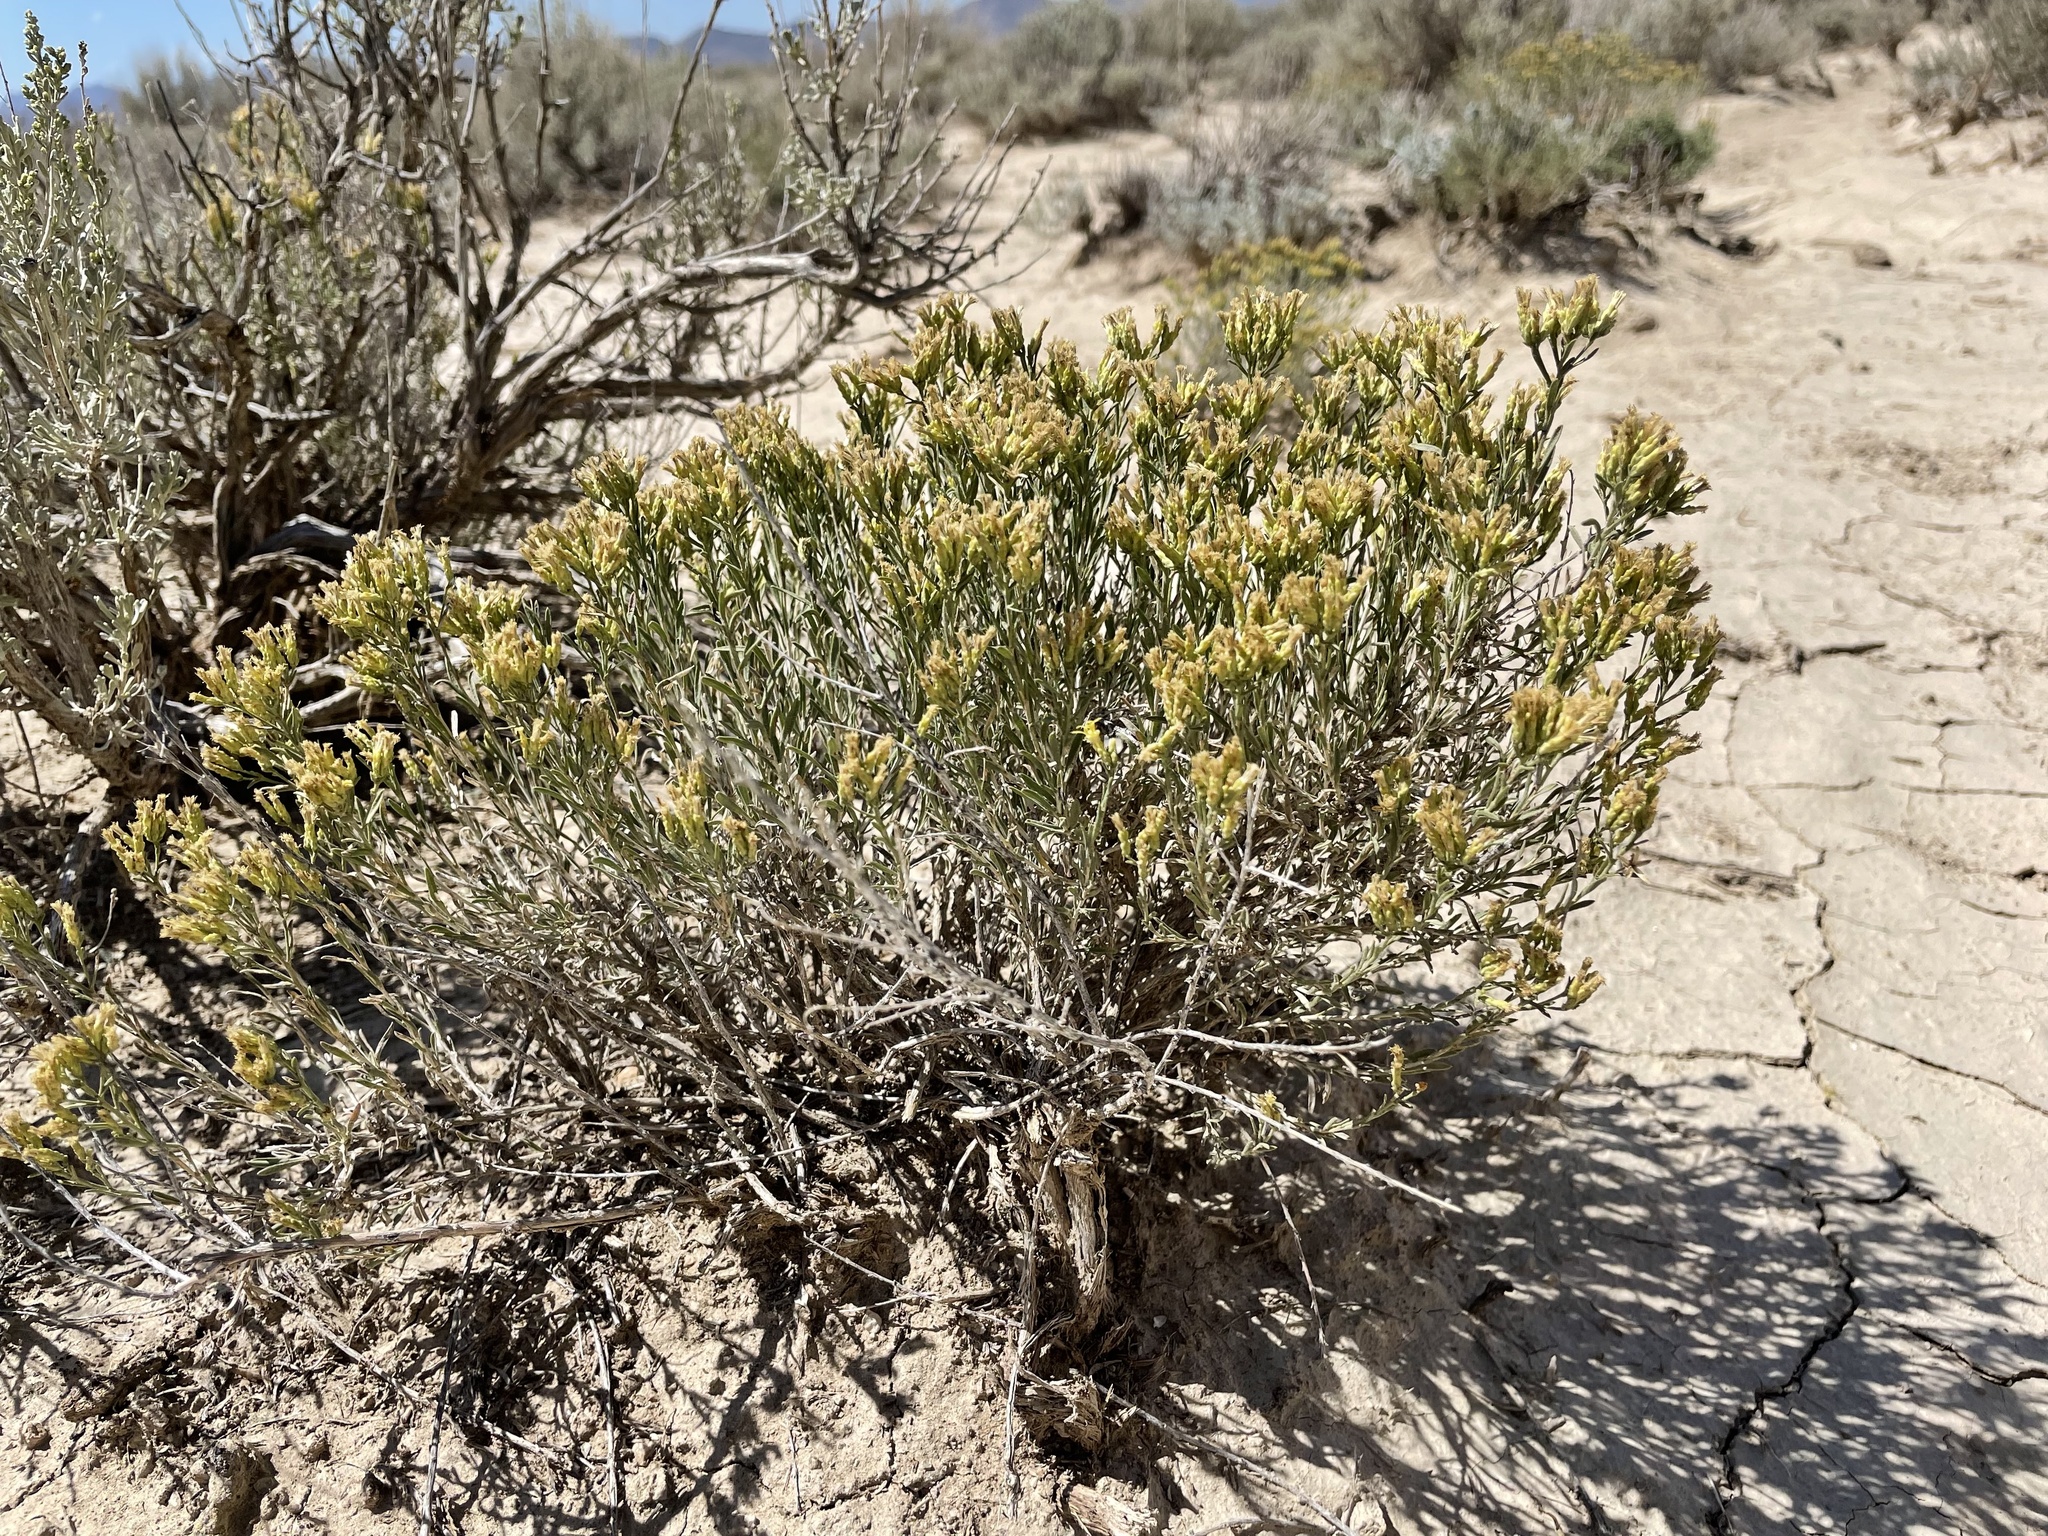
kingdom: Plantae
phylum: Tracheophyta
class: Magnoliopsida
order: Asterales
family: Asteraceae
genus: Chrysothamnus
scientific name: Chrysothamnus viscidiflorus
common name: Yellow rabbitbrush
